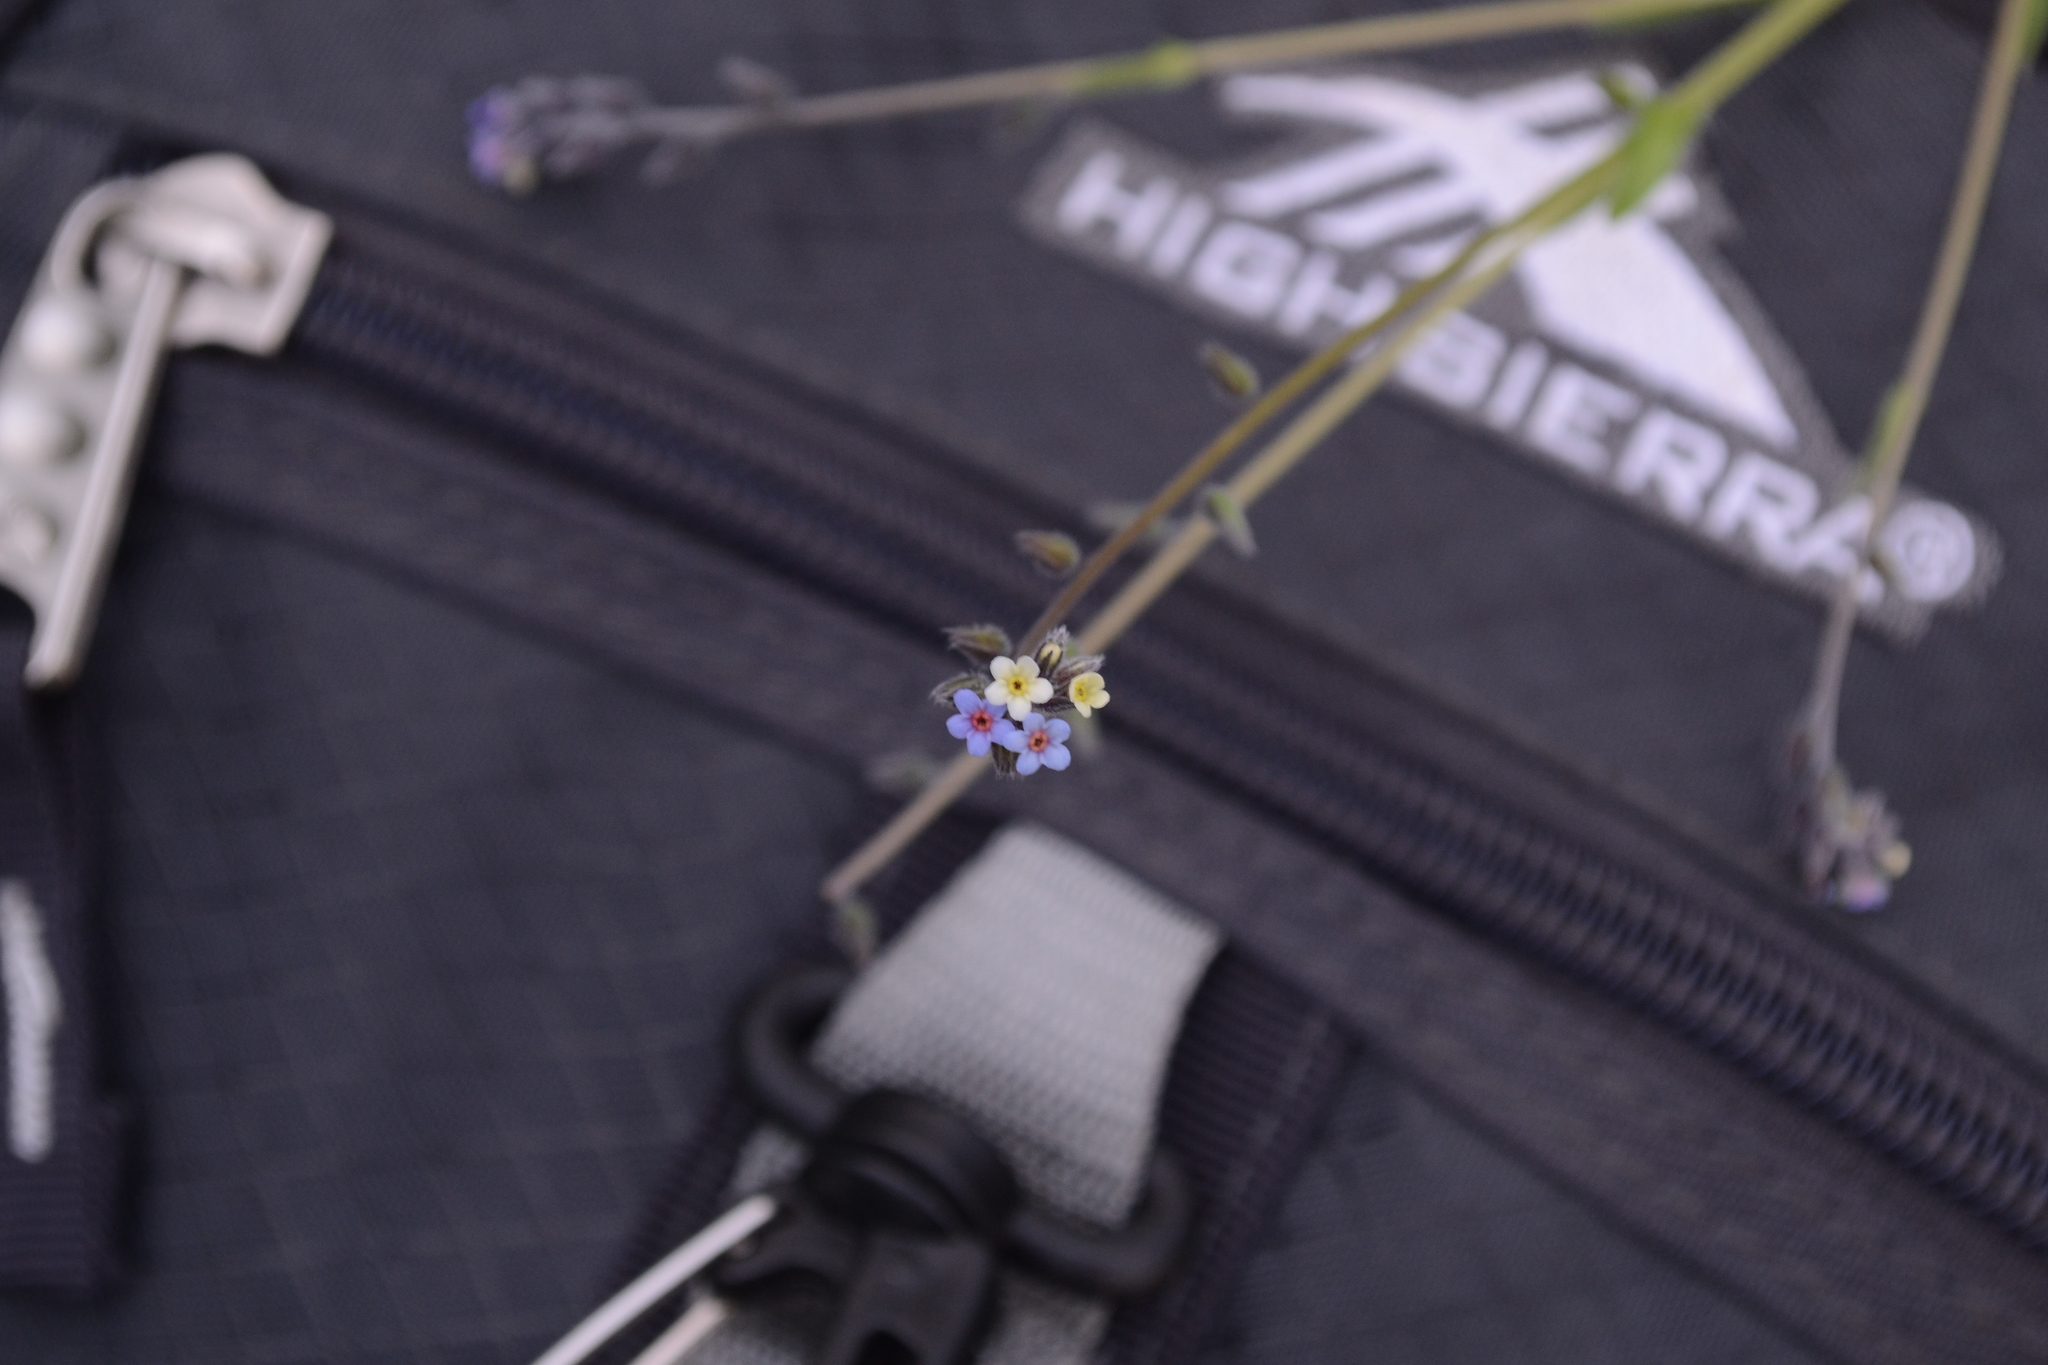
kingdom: Plantae
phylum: Tracheophyta
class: Magnoliopsida
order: Boraginales
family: Boraginaceae
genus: Myosotis
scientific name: Myosotis discolor
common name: Changing forget-me-not
